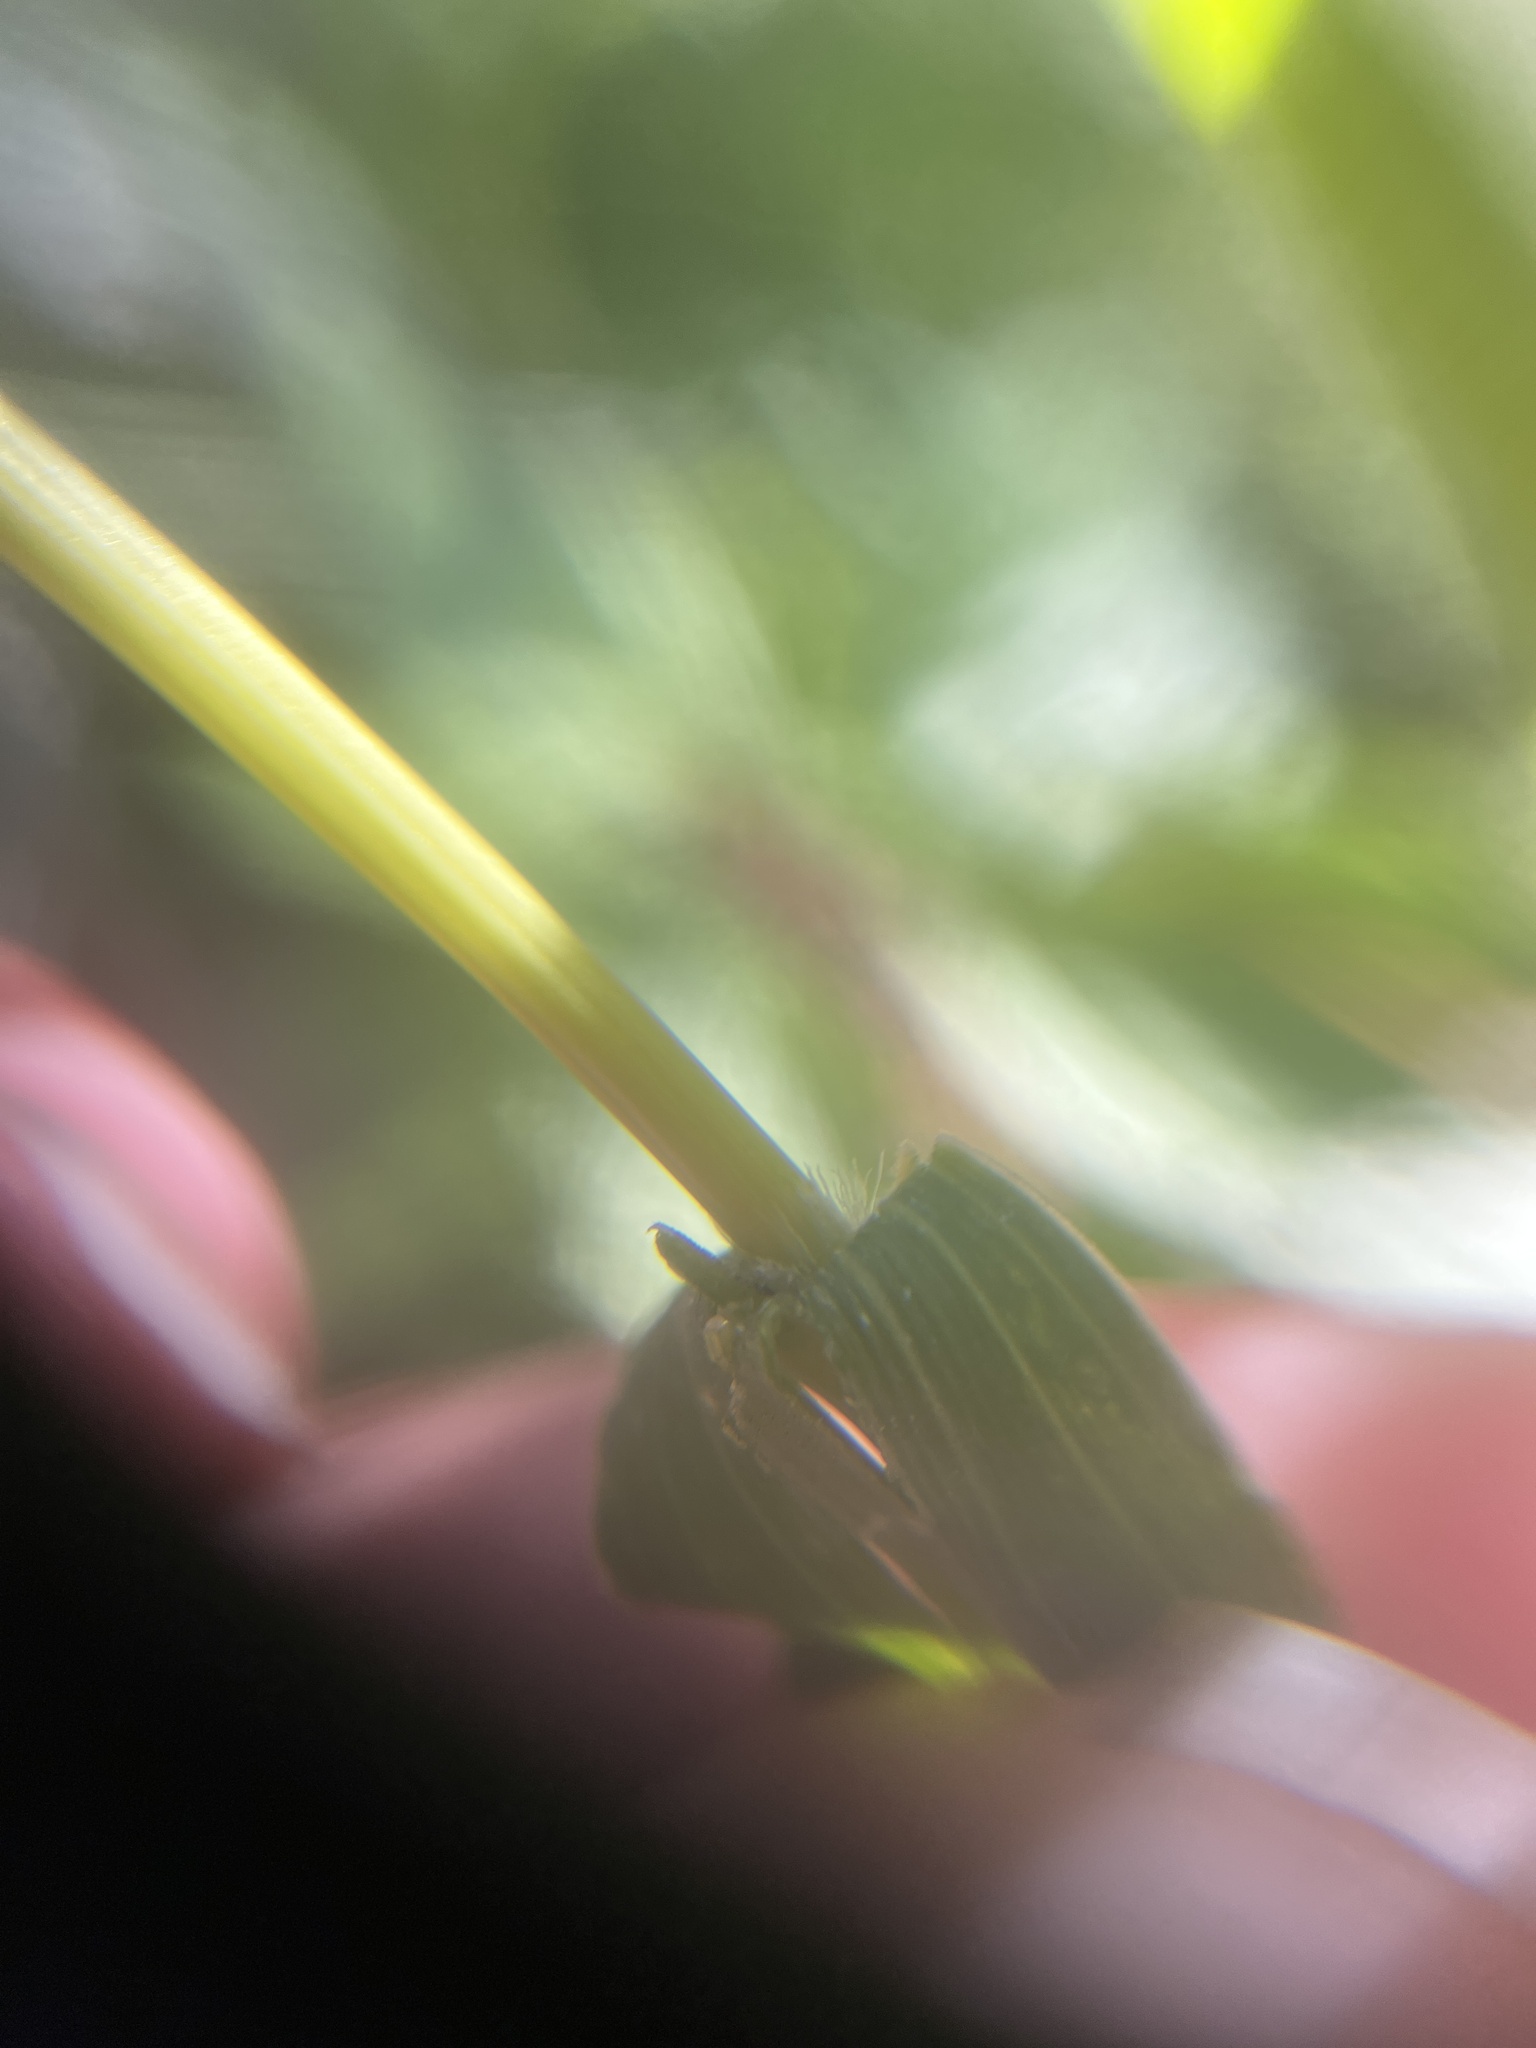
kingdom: Plantae
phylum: Tracheophyta
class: Liliopsida
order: Poales
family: Poaceae
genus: Setaria
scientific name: Setaria viridis
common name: Green bristlegrass
